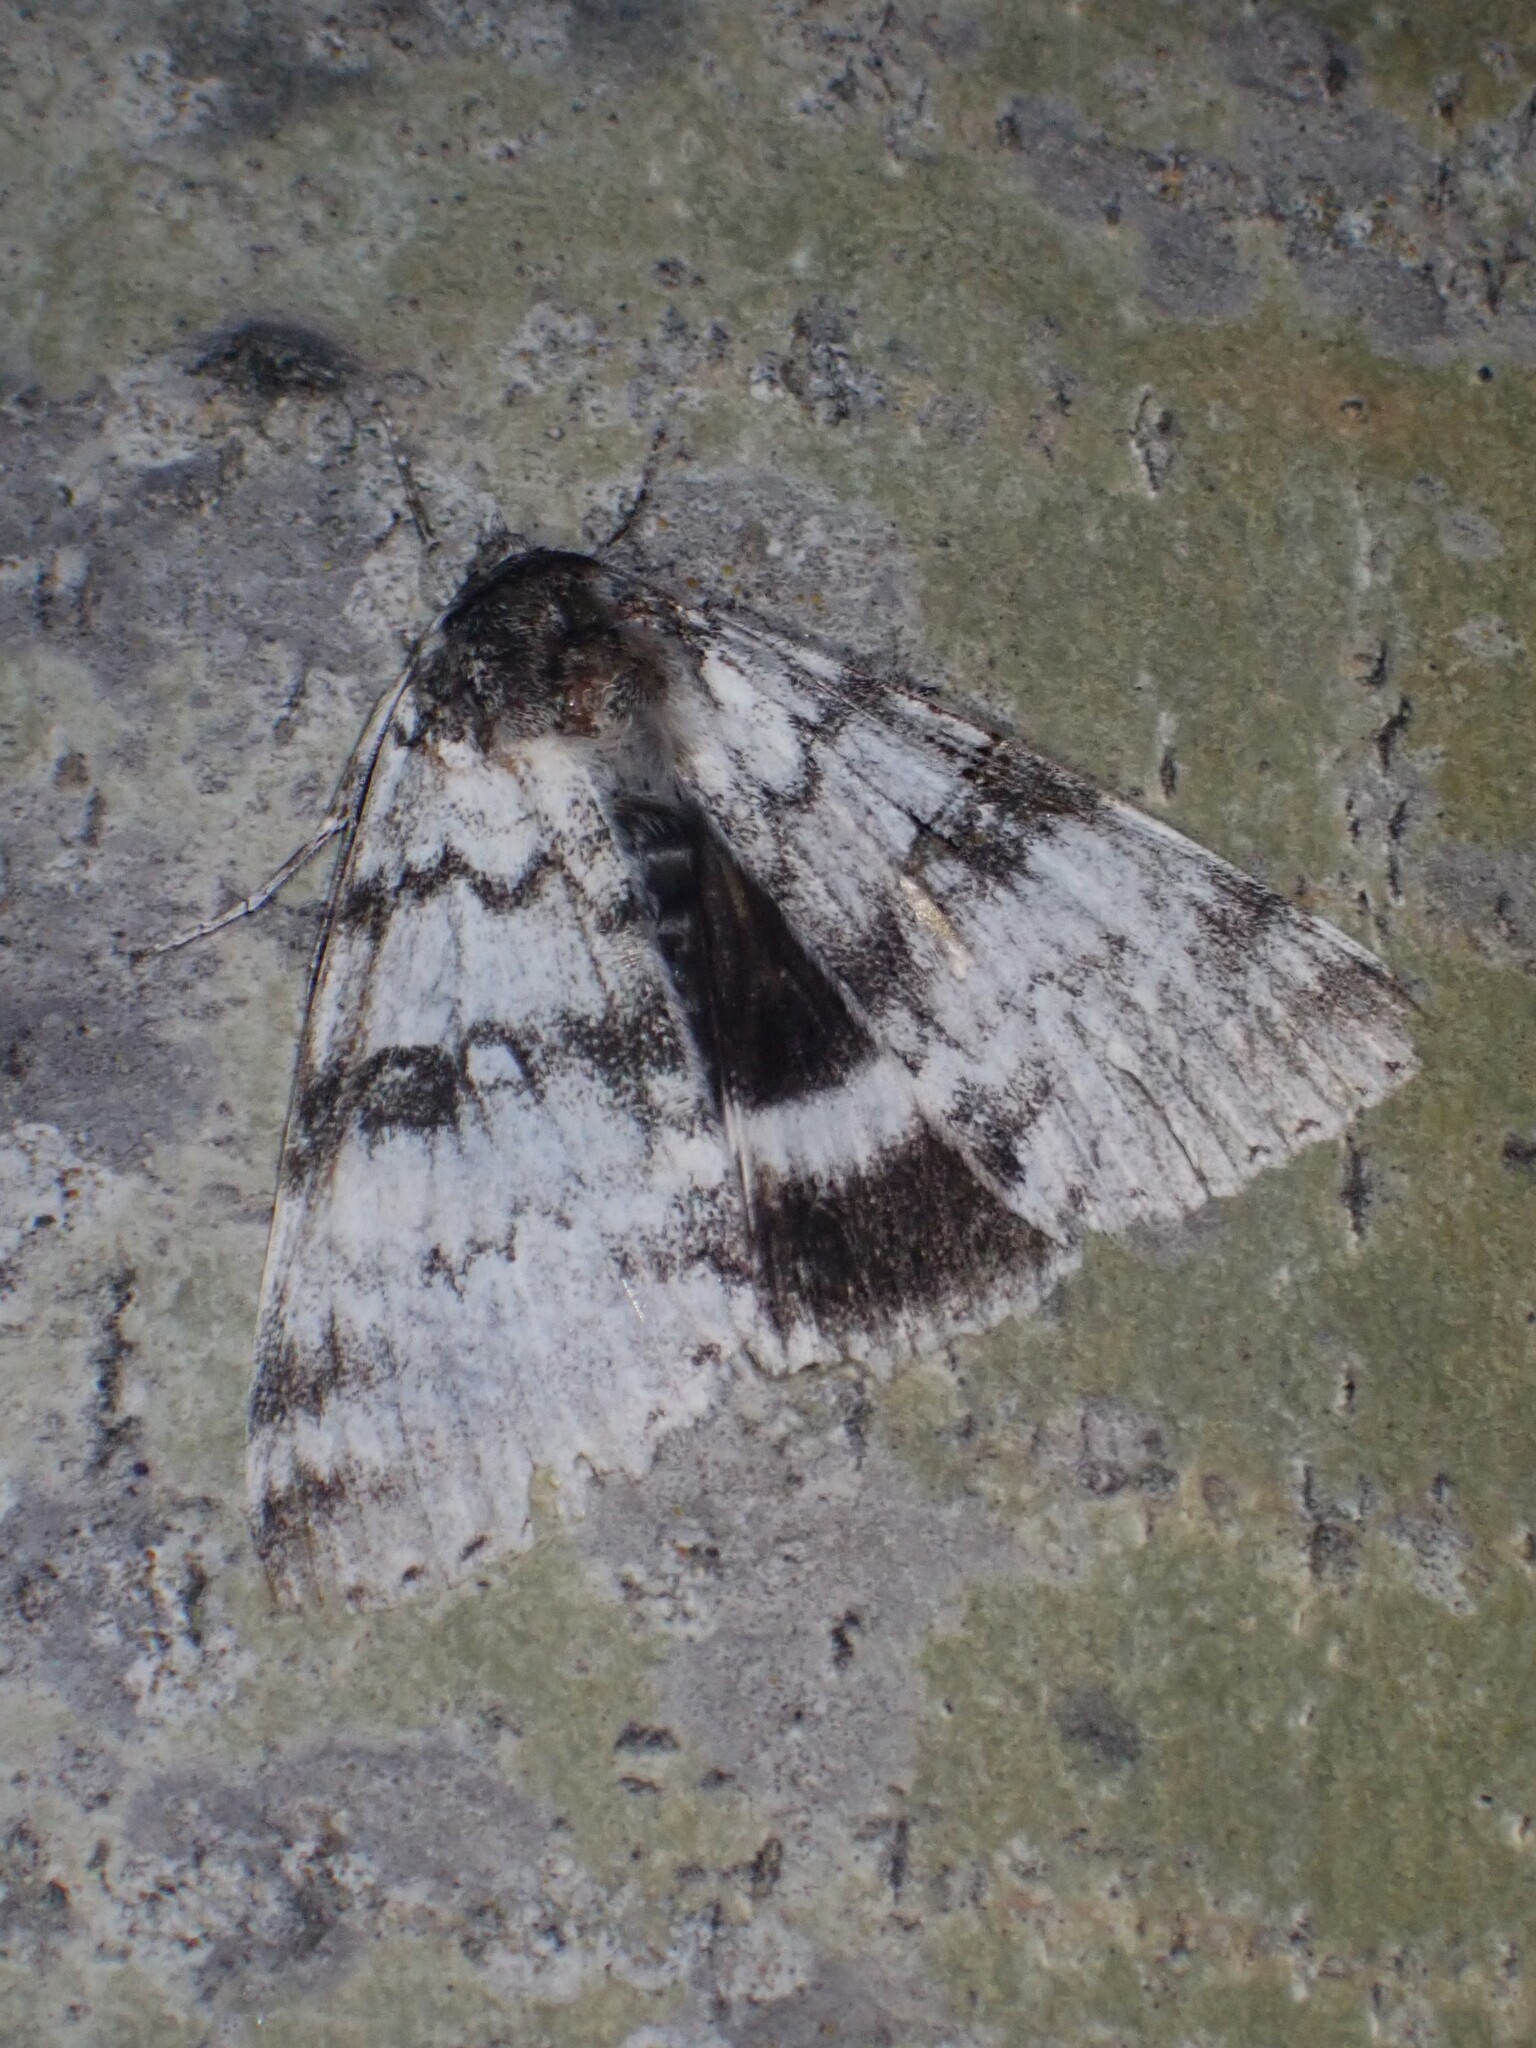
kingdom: Animalia
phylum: Arthropoda
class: Insecta
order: Lepidoptera
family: Erebidae
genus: Catocala
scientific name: Catocala relicta
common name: White underwing
